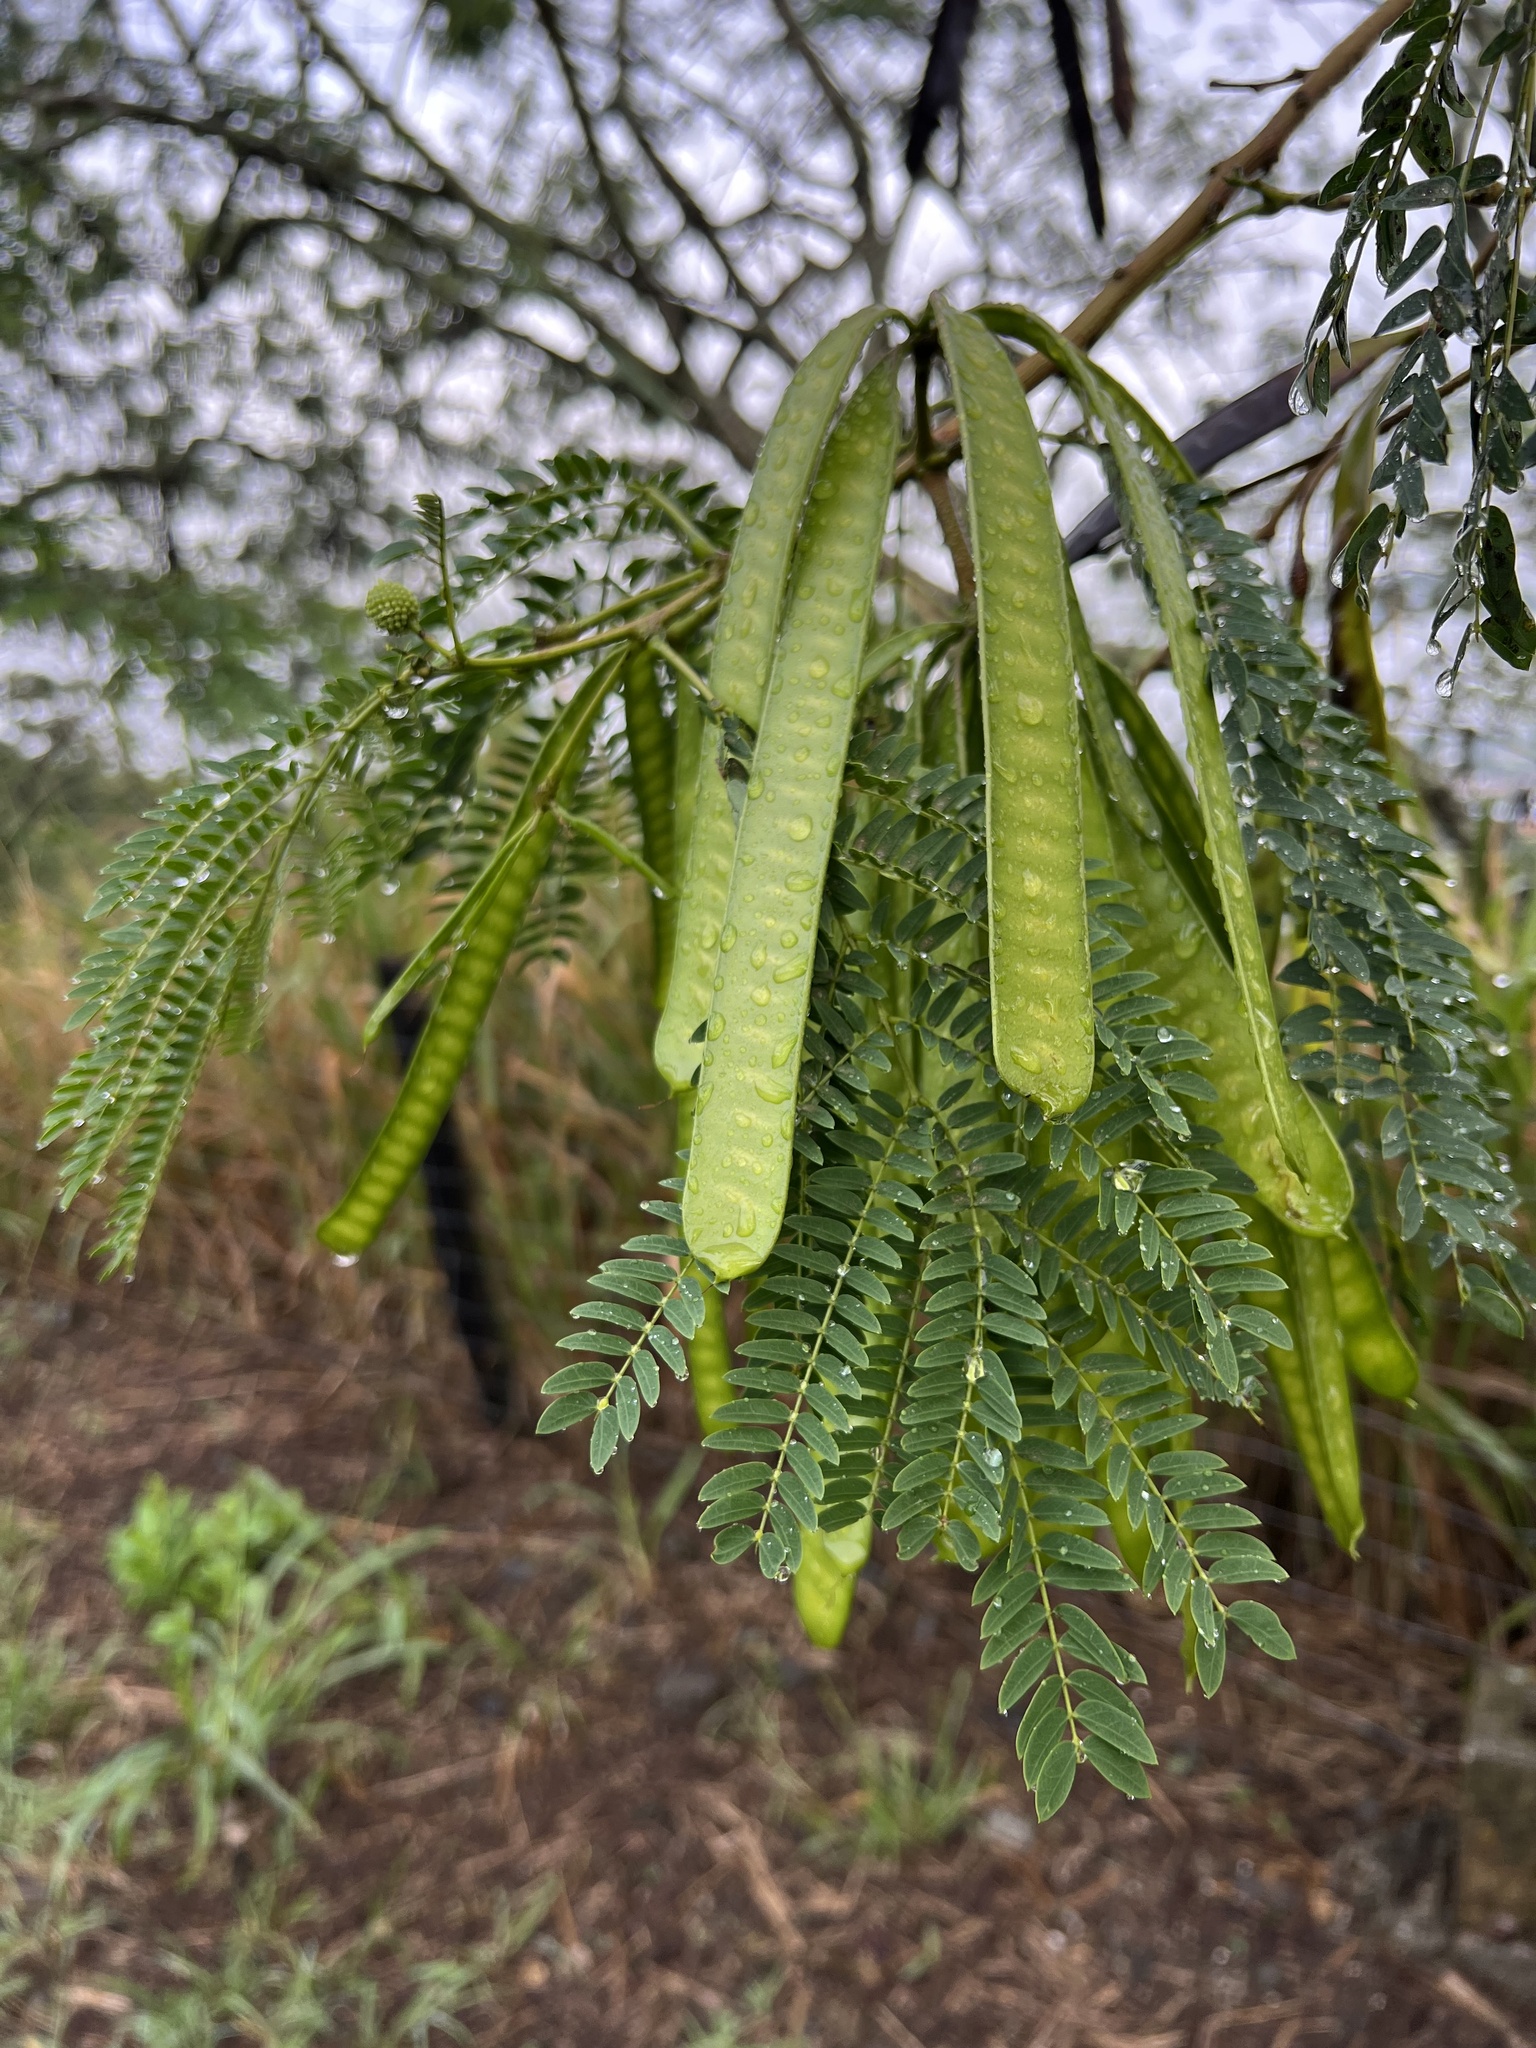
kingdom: Plantae
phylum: Tracheophyta
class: Magnoliopsida
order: Fabales
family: Fabaceae
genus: Leucaena
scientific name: Leucaena leucocephala
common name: White leadtree
